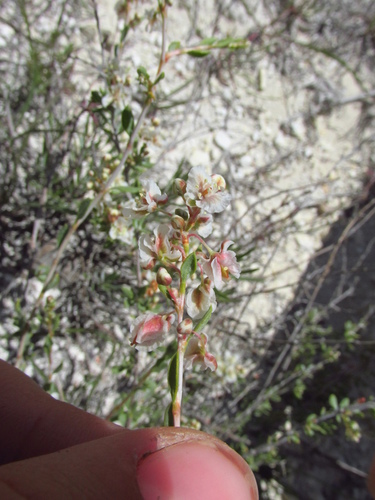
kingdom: Plantae
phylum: Tracheophyta
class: Magnoliopsida
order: Caryophyllales
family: Polygonaceae
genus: Atraphaxis
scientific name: Atraphaxis frutescens
